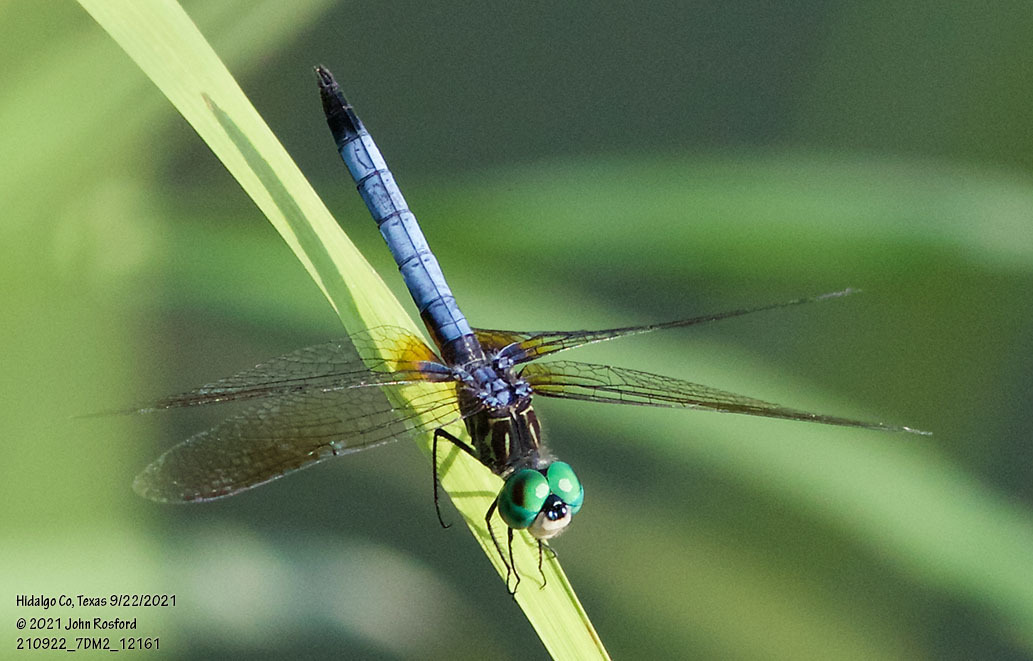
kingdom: Animalia
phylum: Arthropoda
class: Insecta
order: Odonata
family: Libellulidae
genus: Pachydiplax
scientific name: Pachydiplax longipennis
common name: Blue dasher
